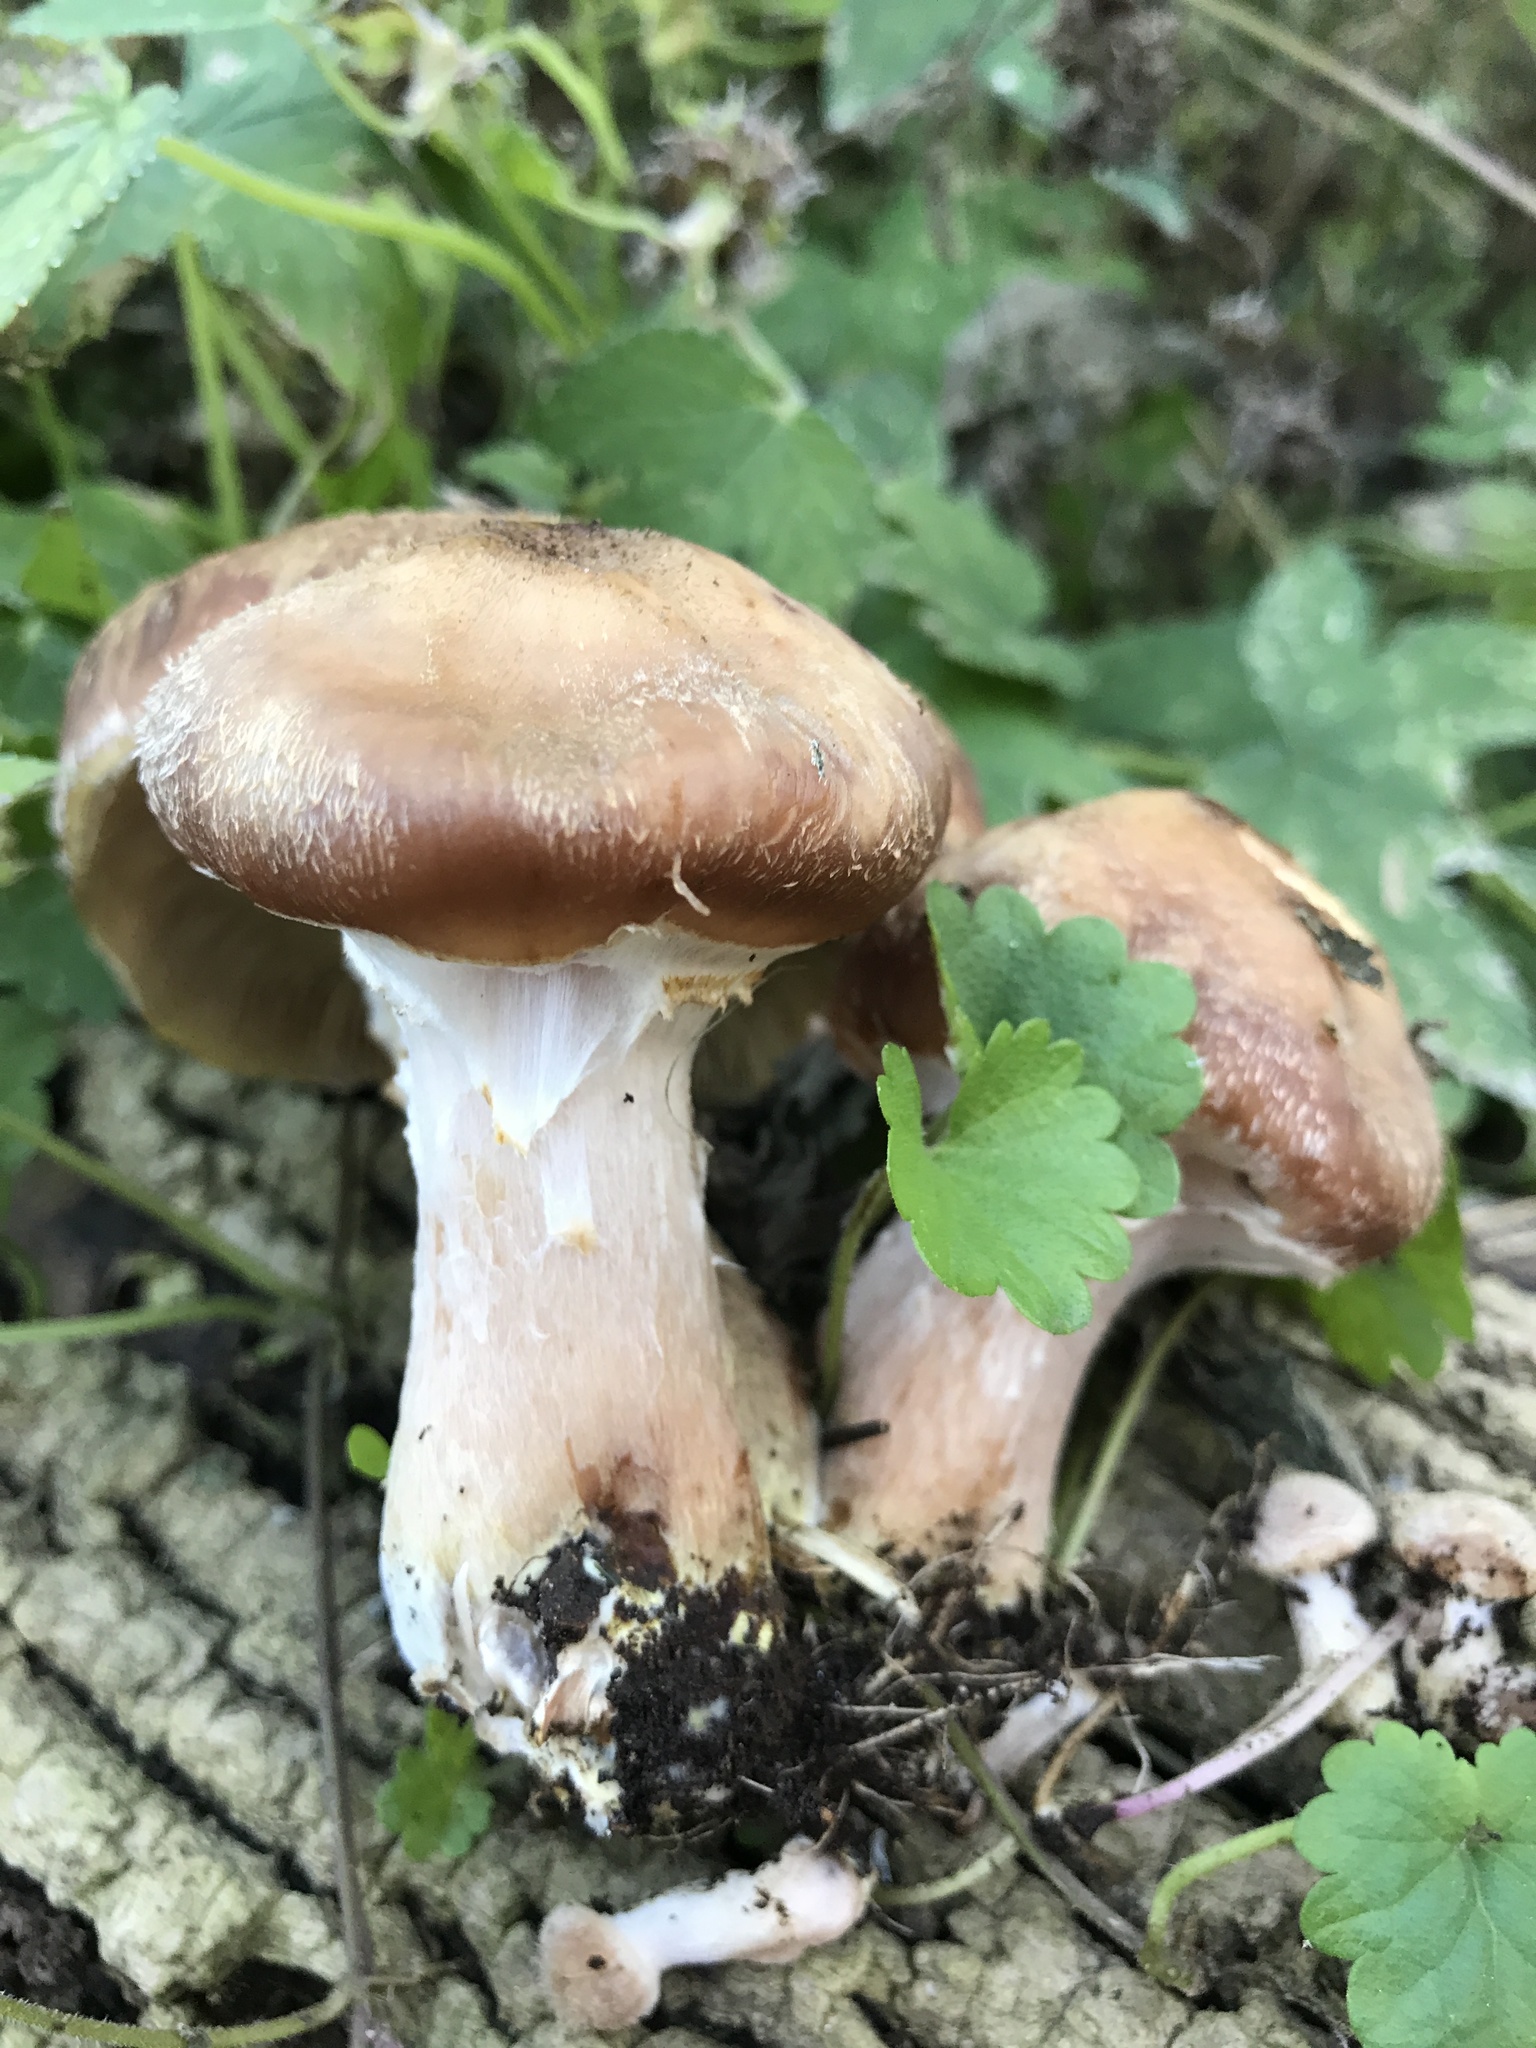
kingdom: Fungi
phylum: Basidiomycota
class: Agaricomycetes
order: Agaricales
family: Physalacriaceae
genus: Armillaria
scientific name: Armillaria gallica
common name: Bulbous honey fungus
